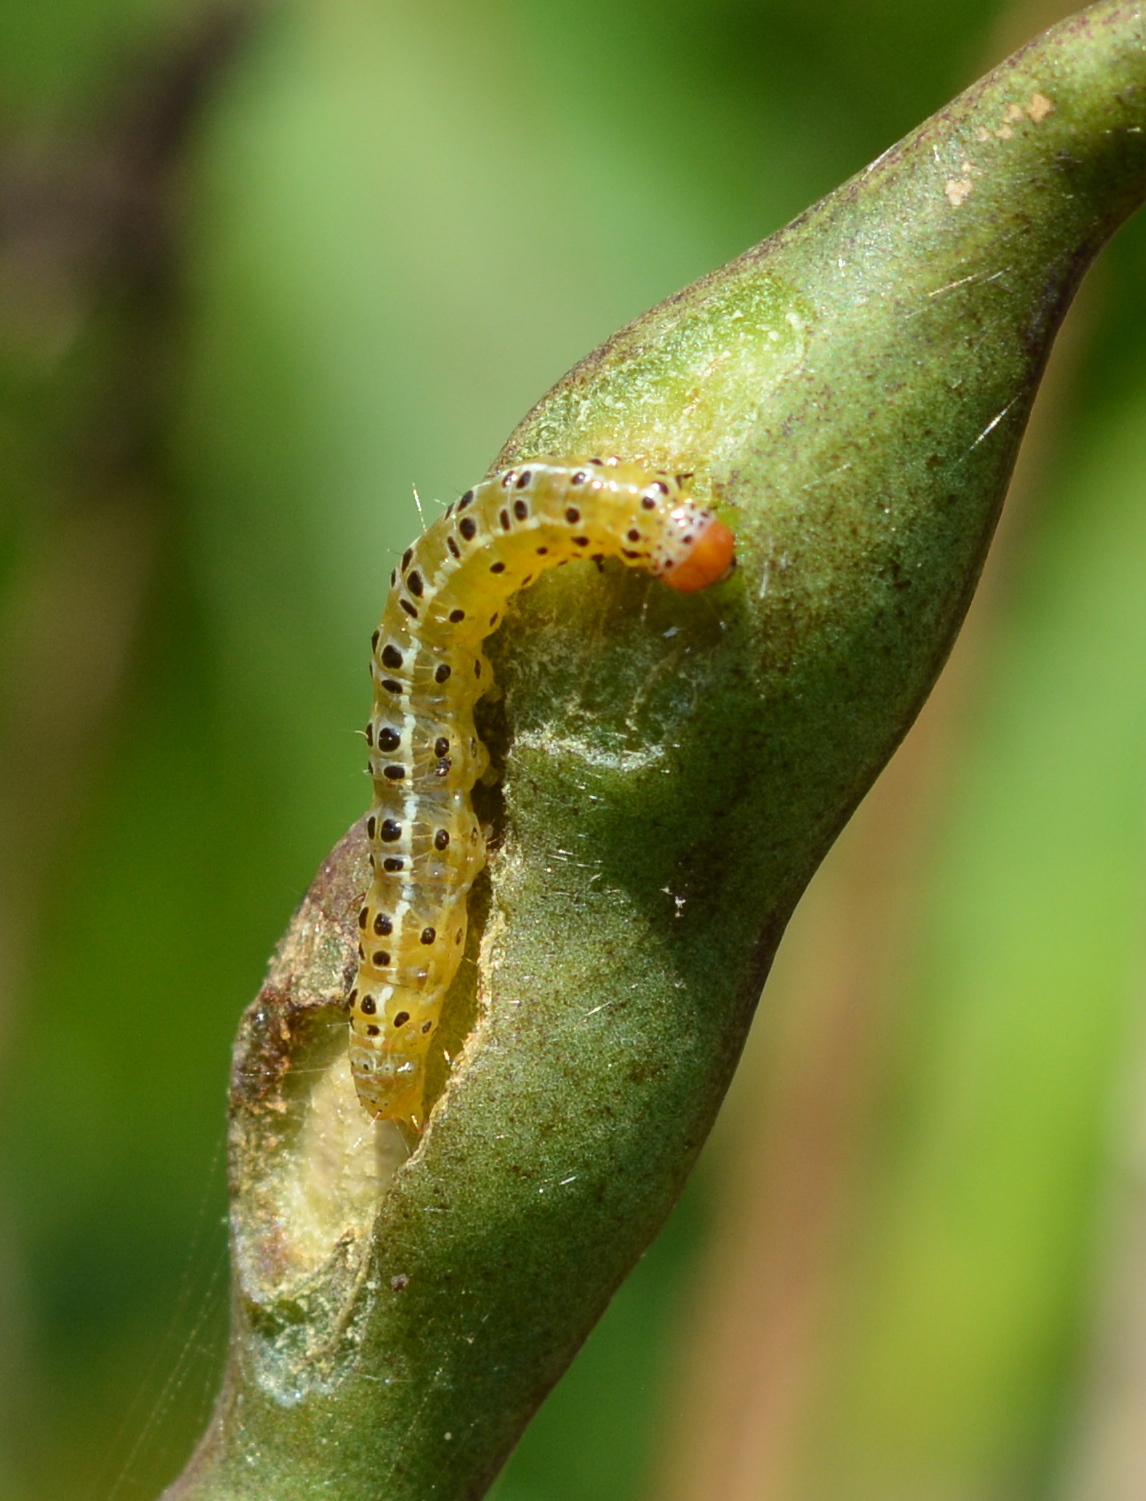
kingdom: Animalia
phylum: Arthropoda
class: Insecta
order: Lepidoptera
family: Crambidae
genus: Agathodes
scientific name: Agathodes monstralis
